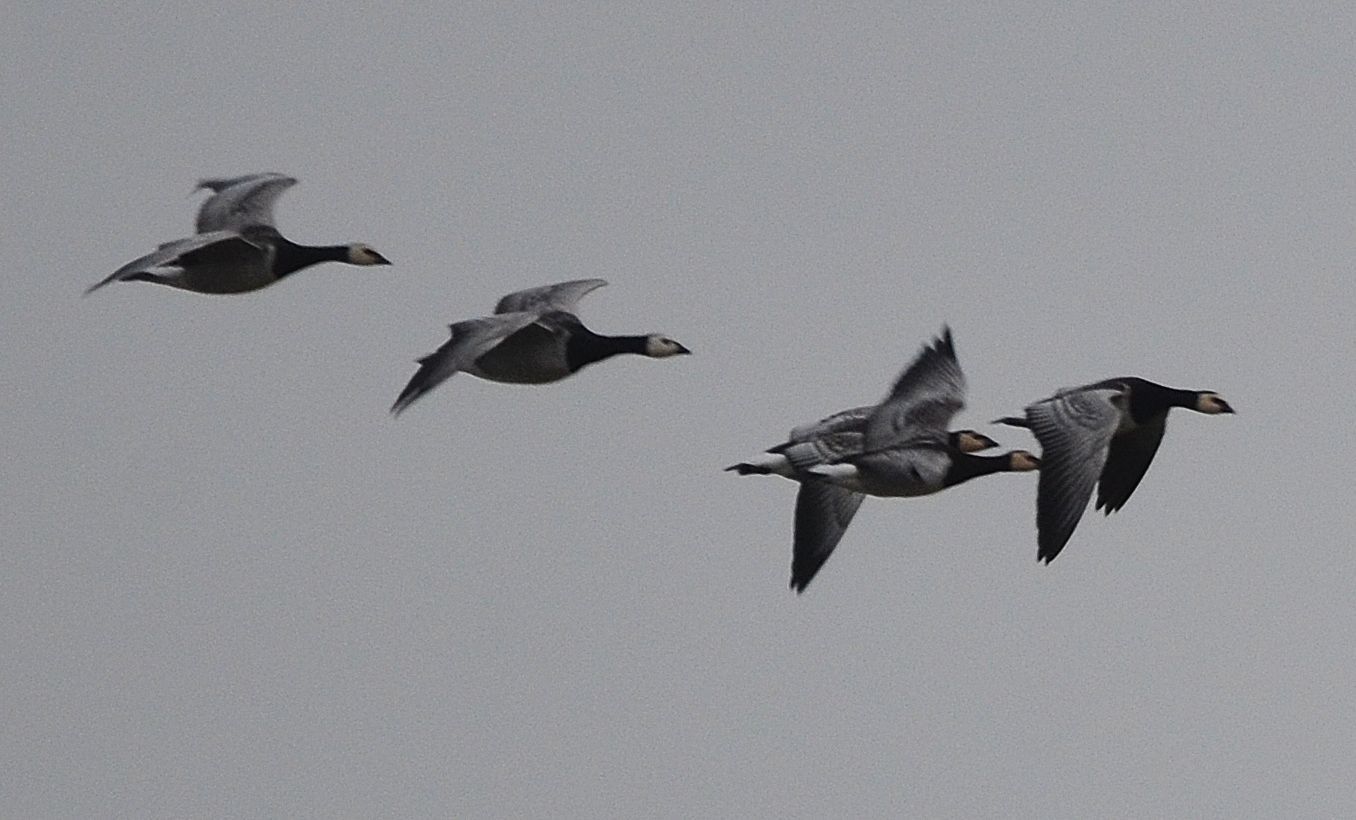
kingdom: Animalia
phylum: Chordata
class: Aves
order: Anseriformes
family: Anatidae
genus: Branta
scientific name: Branta leucopsis
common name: Barnacle goose
